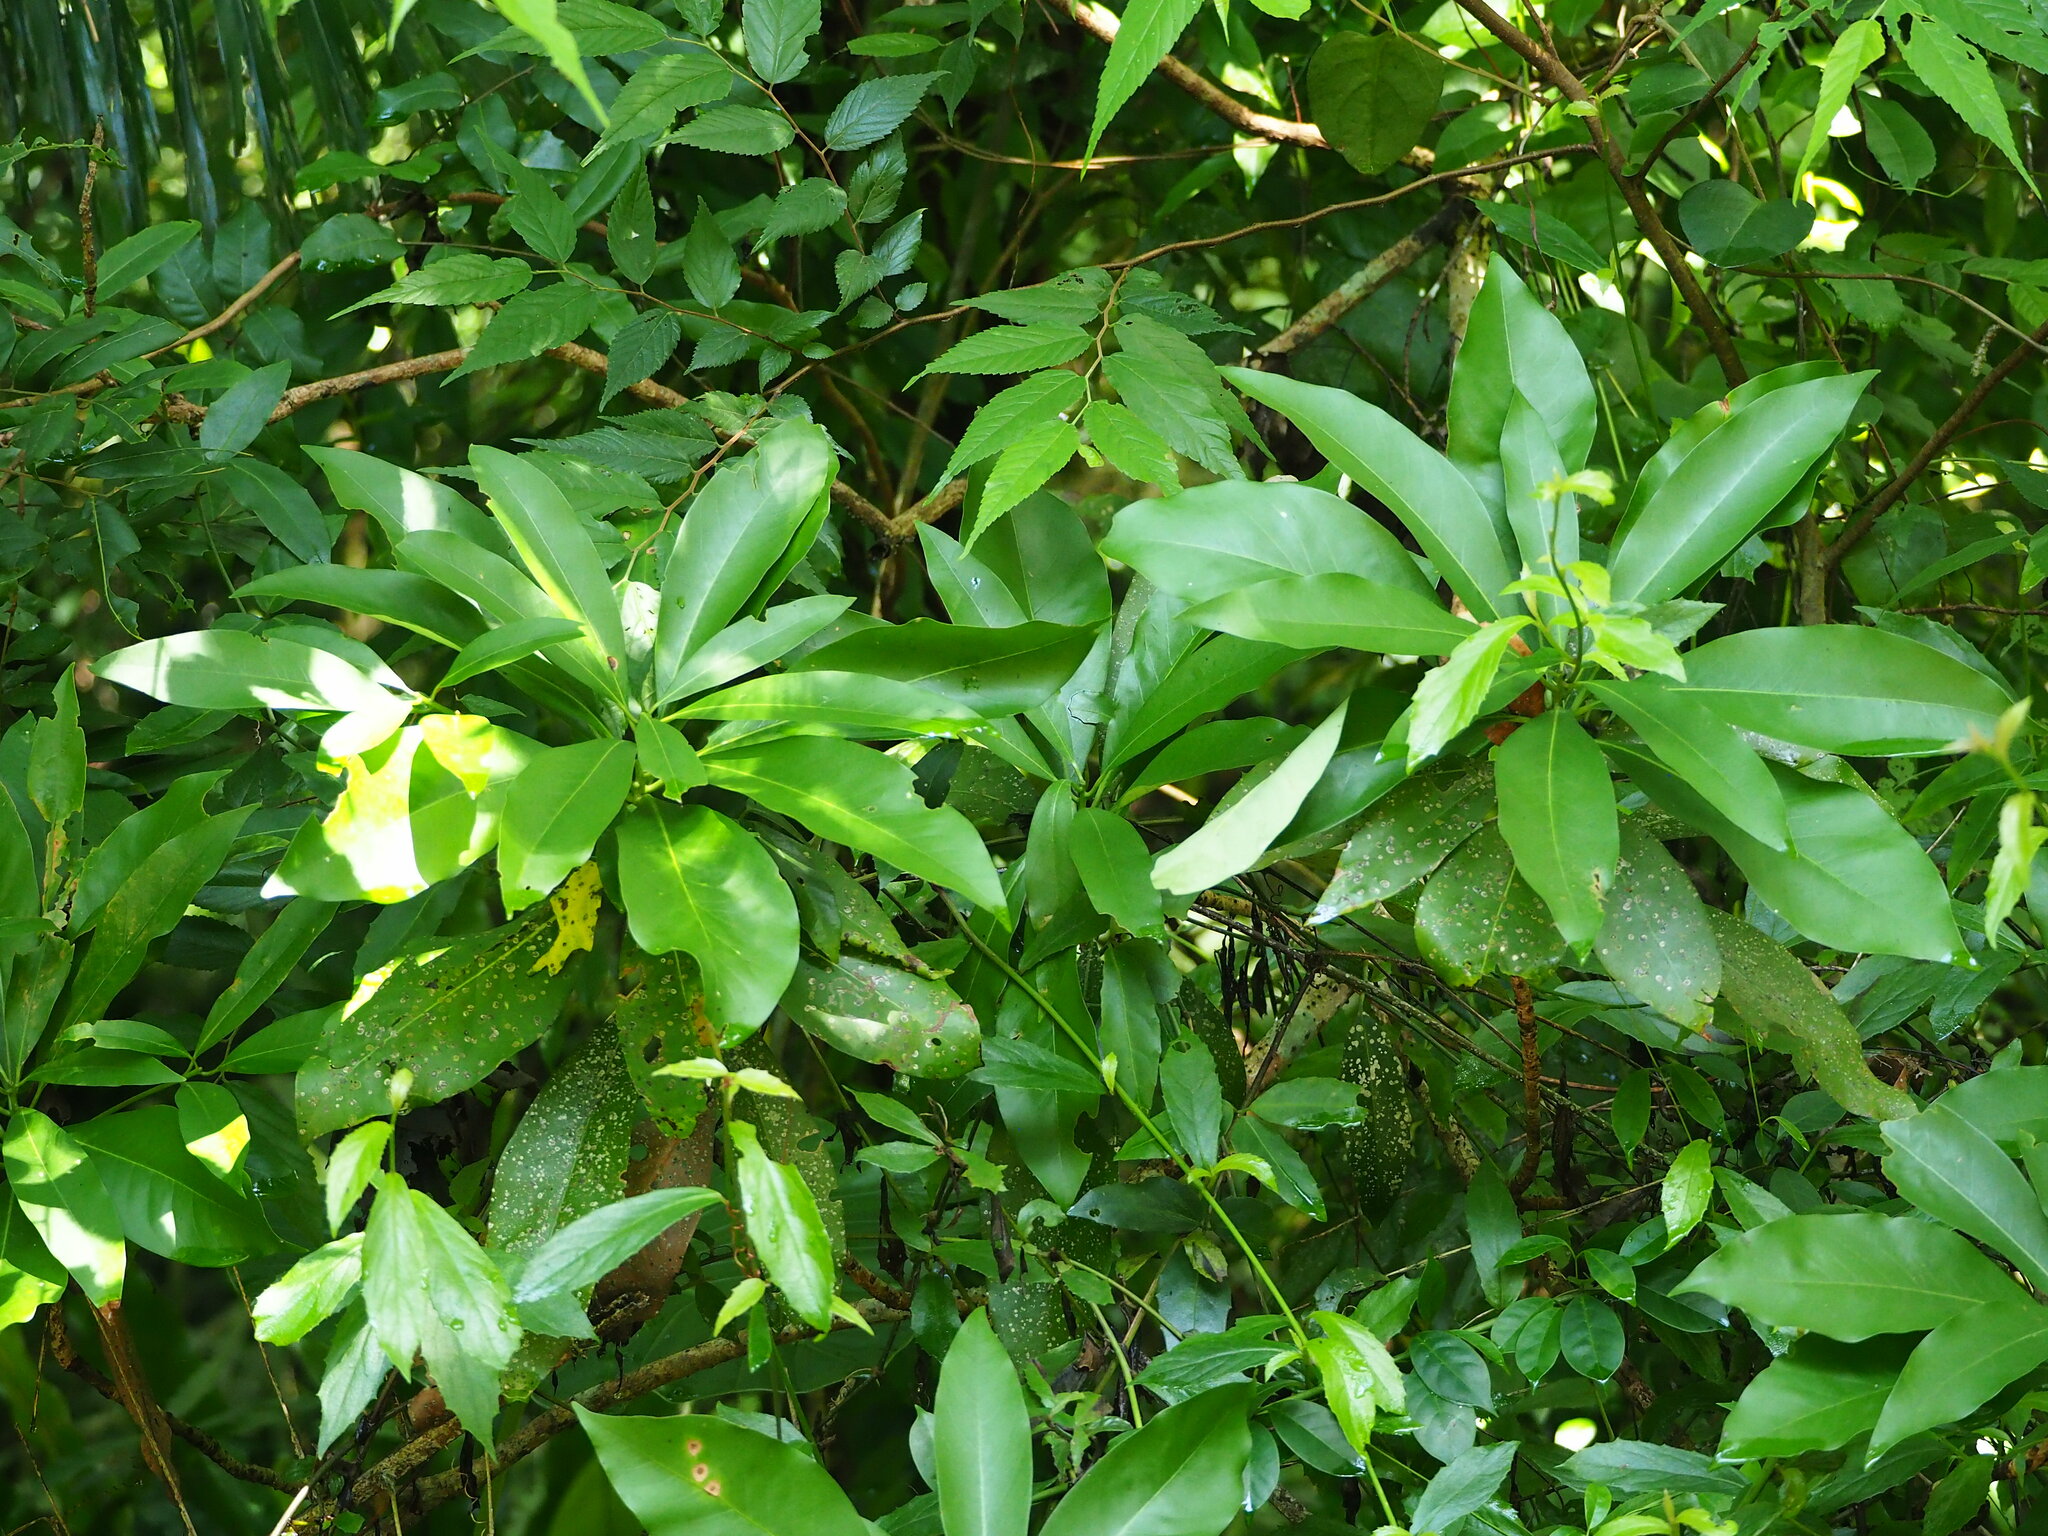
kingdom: Plantae
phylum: Tracheophyta
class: Magnoliopsida
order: Laurales
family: Lauraceae
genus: Machilus
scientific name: Machilus japonica
